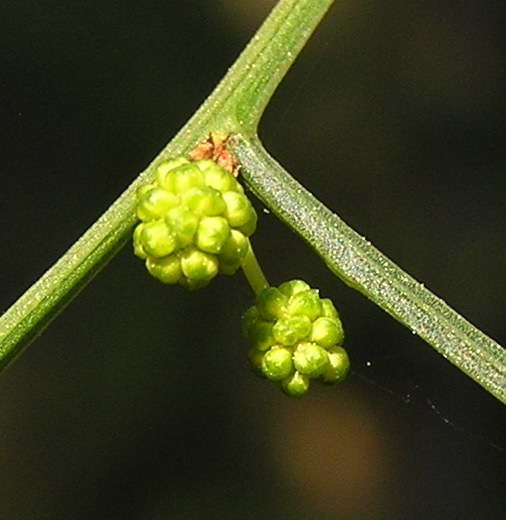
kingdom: Plantae
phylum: Tracheophyta
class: Magnoliopsida
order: Fabales
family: Fabaceae
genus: Acacia
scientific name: Acacia genistifolia
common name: Early wattle
